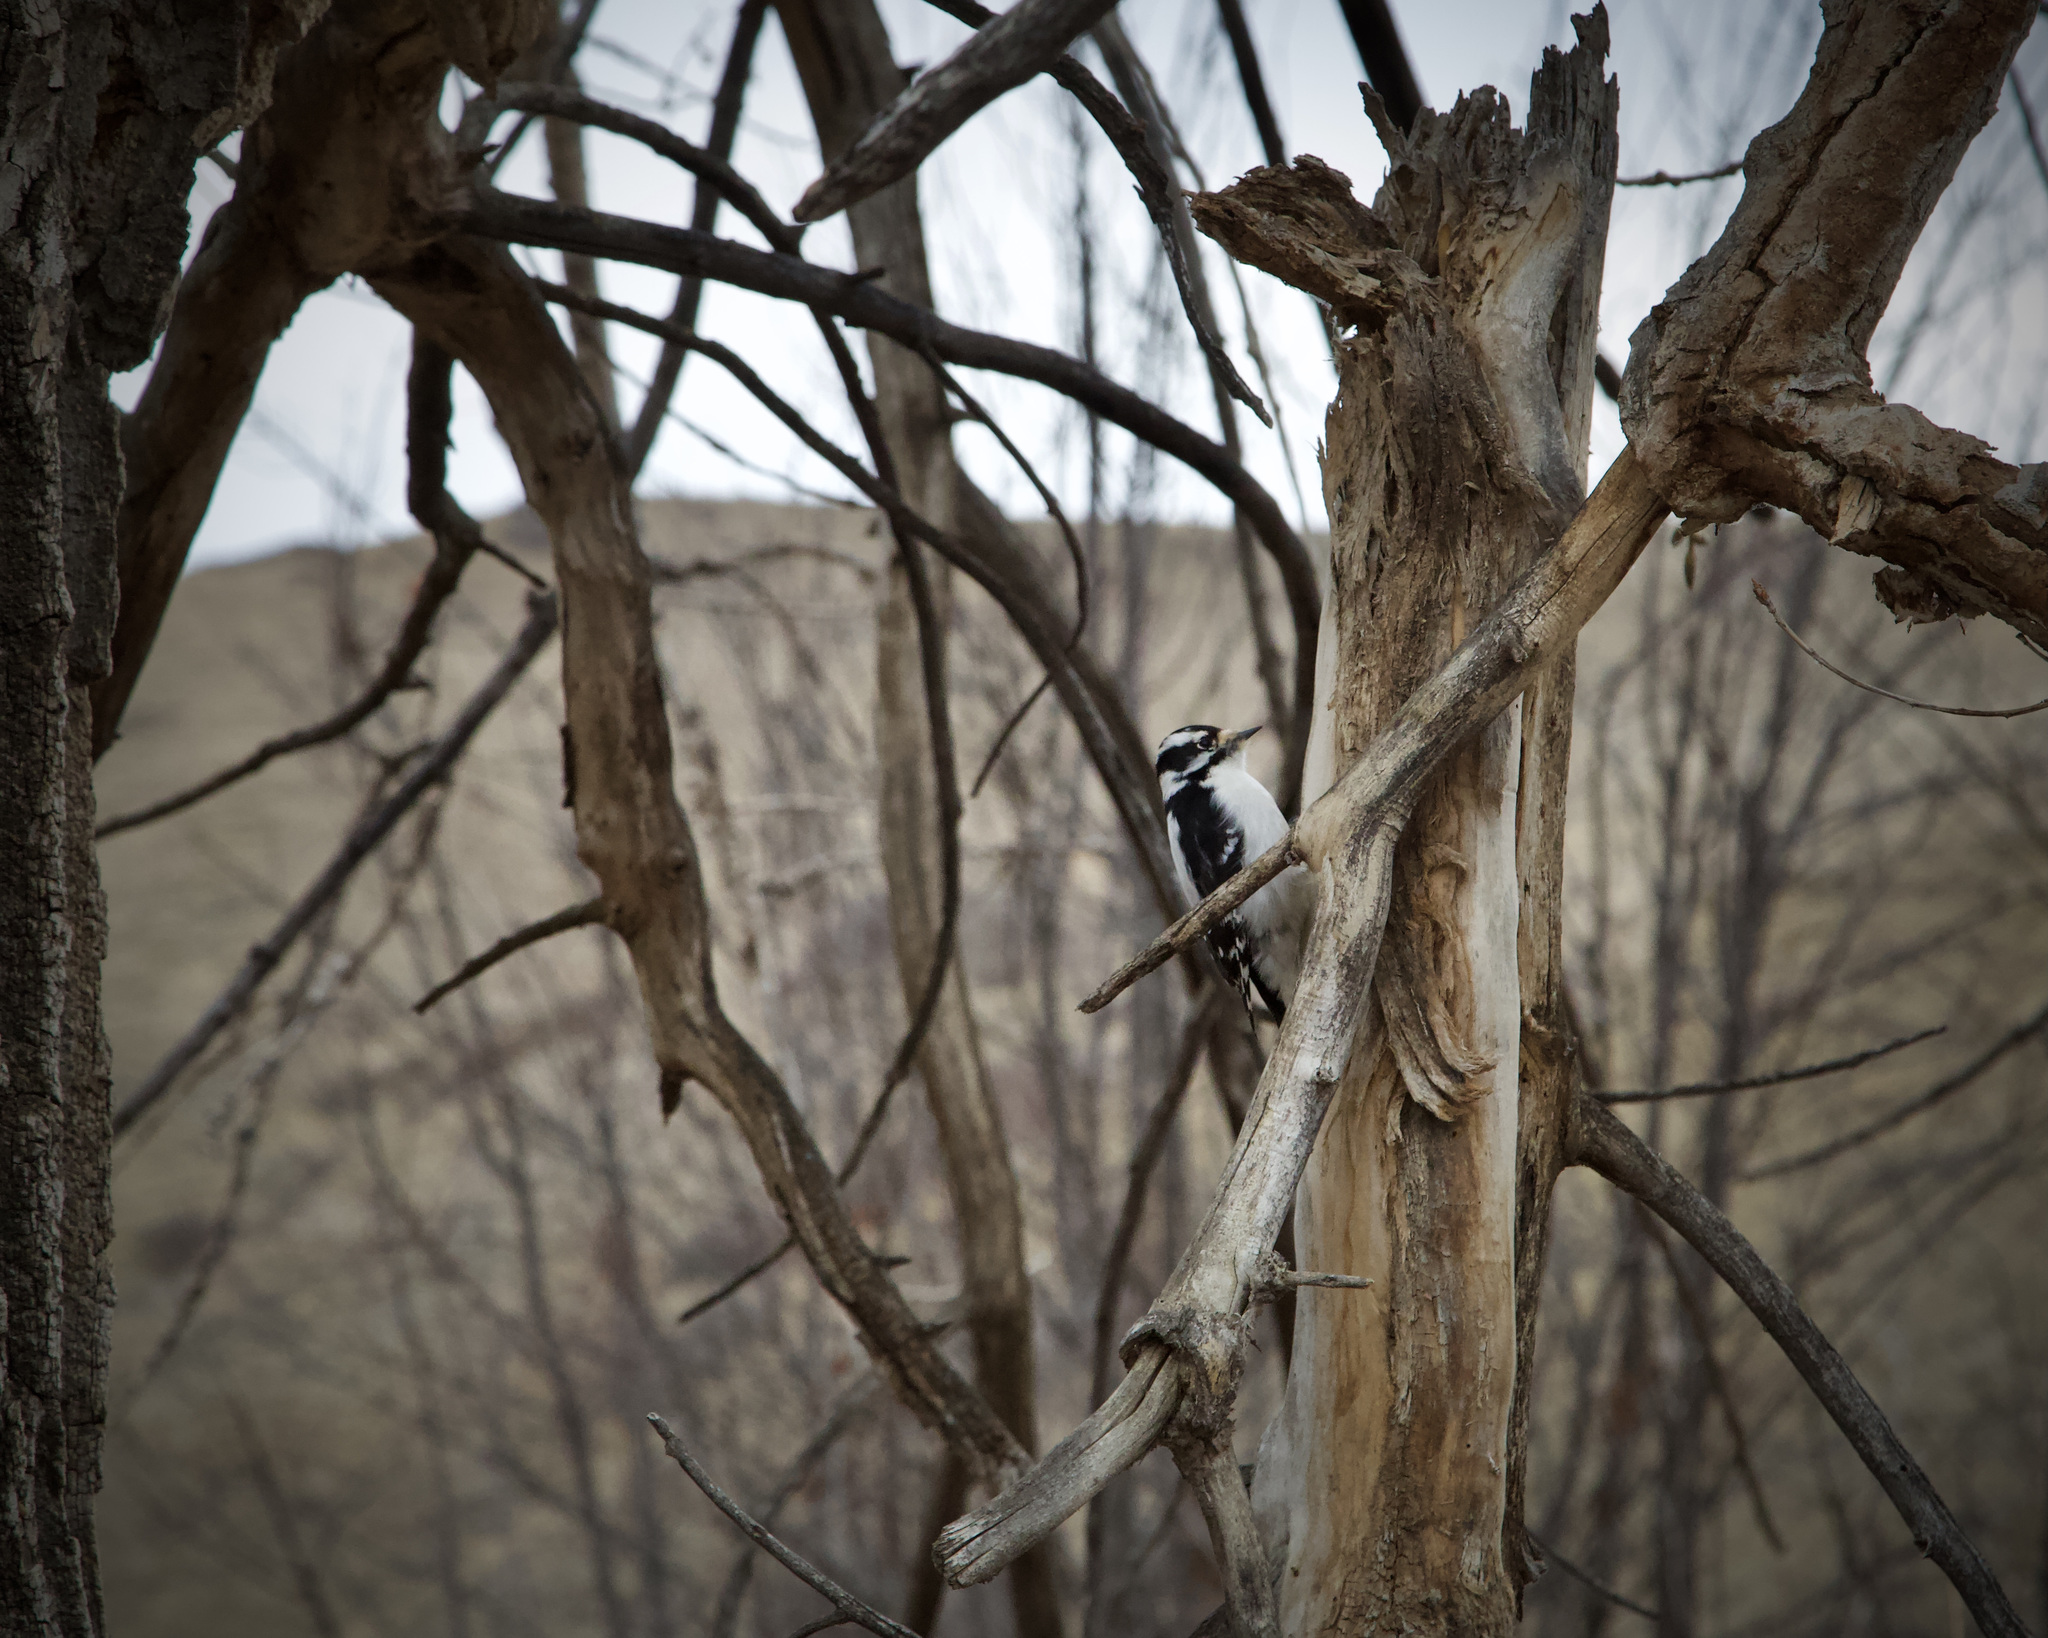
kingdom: Animalia
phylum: Chordata
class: Aves
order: Piciformes
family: Picidae
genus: Dryobates
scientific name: Dryobates pubescens
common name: Downy woodpecker
